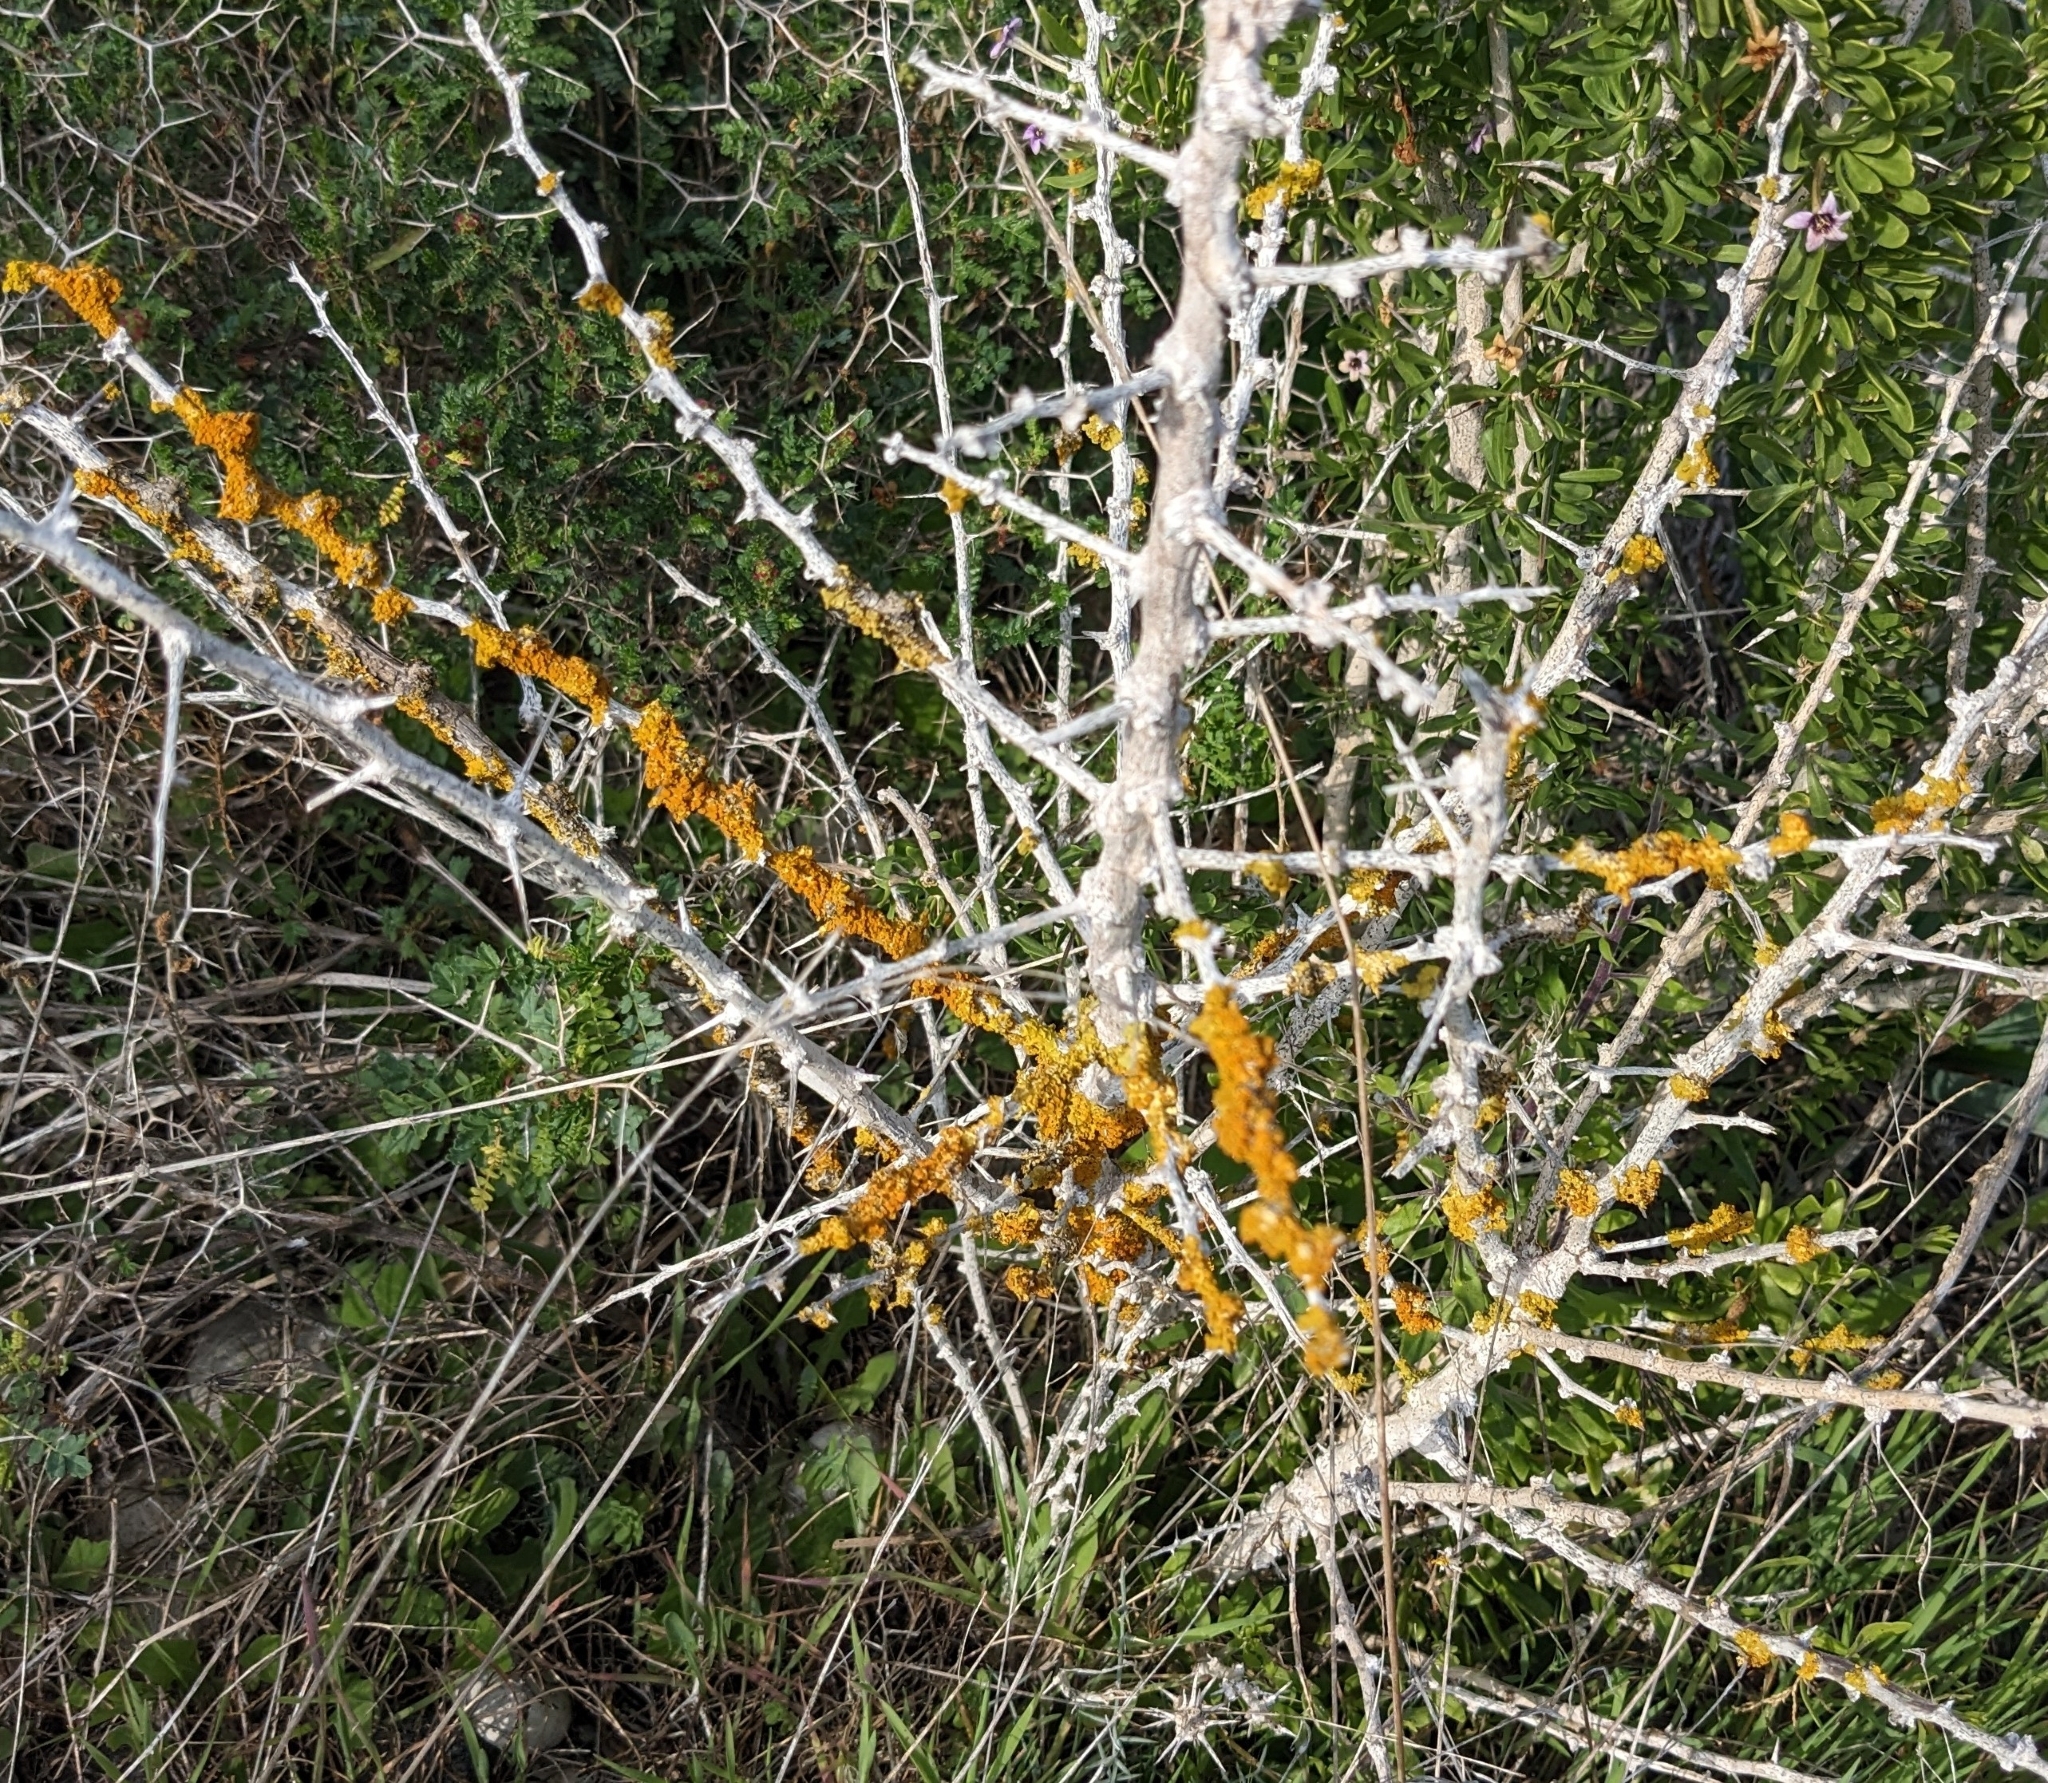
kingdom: Fungi
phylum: Ascomycota
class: Lecanoromycetes
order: Teloschistales
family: Teloschistaceae
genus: Xanthoria
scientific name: Xanthoria parietina
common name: Common orange lichen
